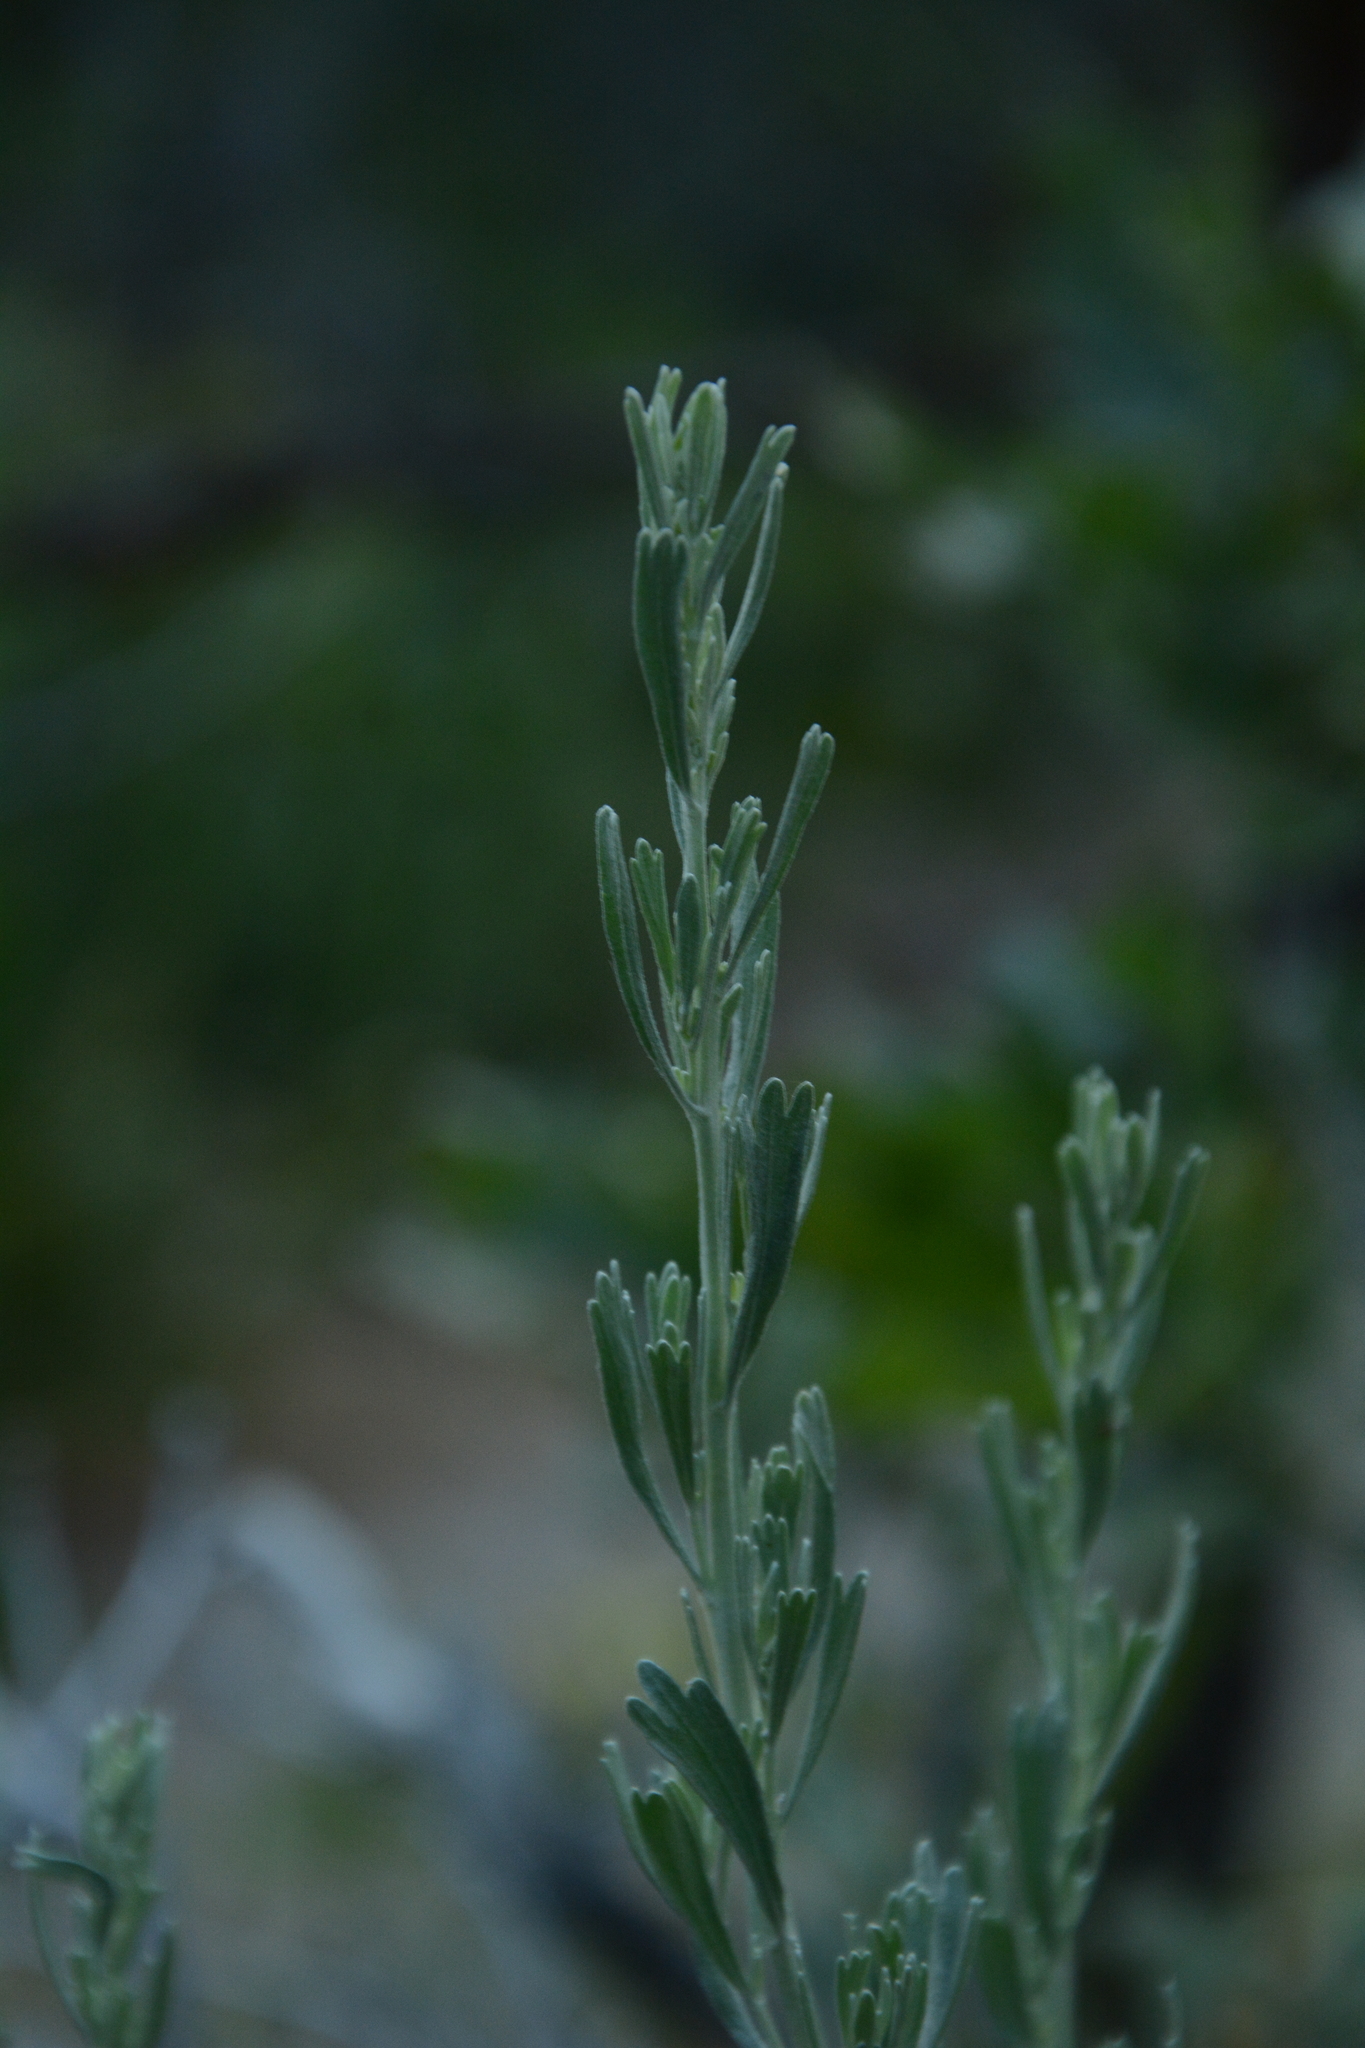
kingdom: Plantae
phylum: Tracheophyta
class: Magnoliopsida
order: Asterales
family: Asteraceae
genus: Artemisia
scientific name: Artemisia tridentata
